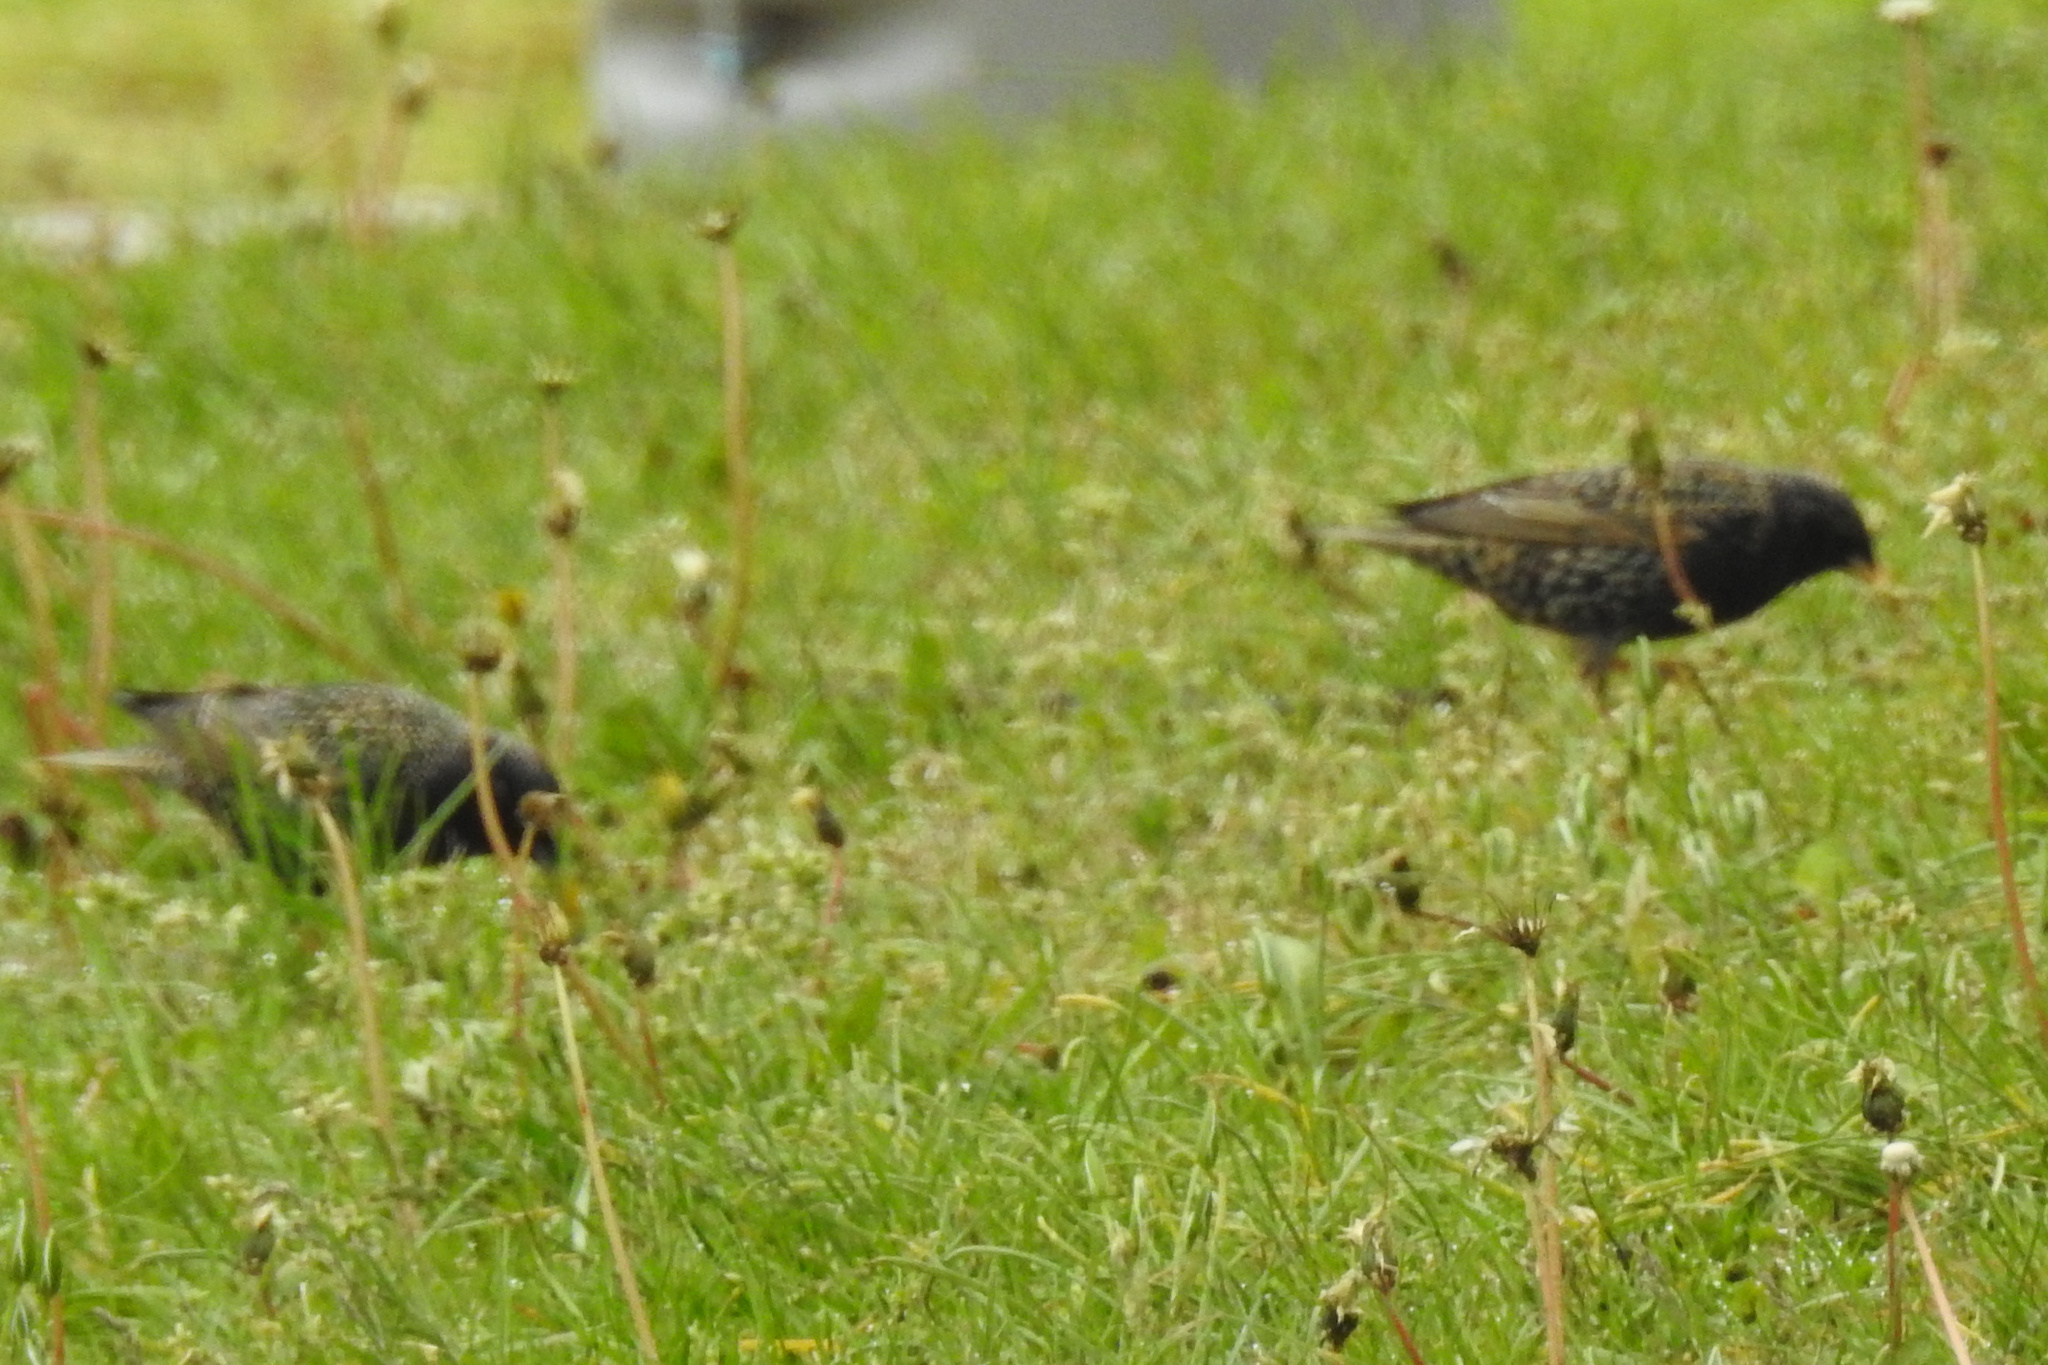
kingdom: Animalia
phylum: Chordata
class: Aves
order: Passeriformes
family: Sturnidae
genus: Sturnus
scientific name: Sturnus vulgaris
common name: Common starling
